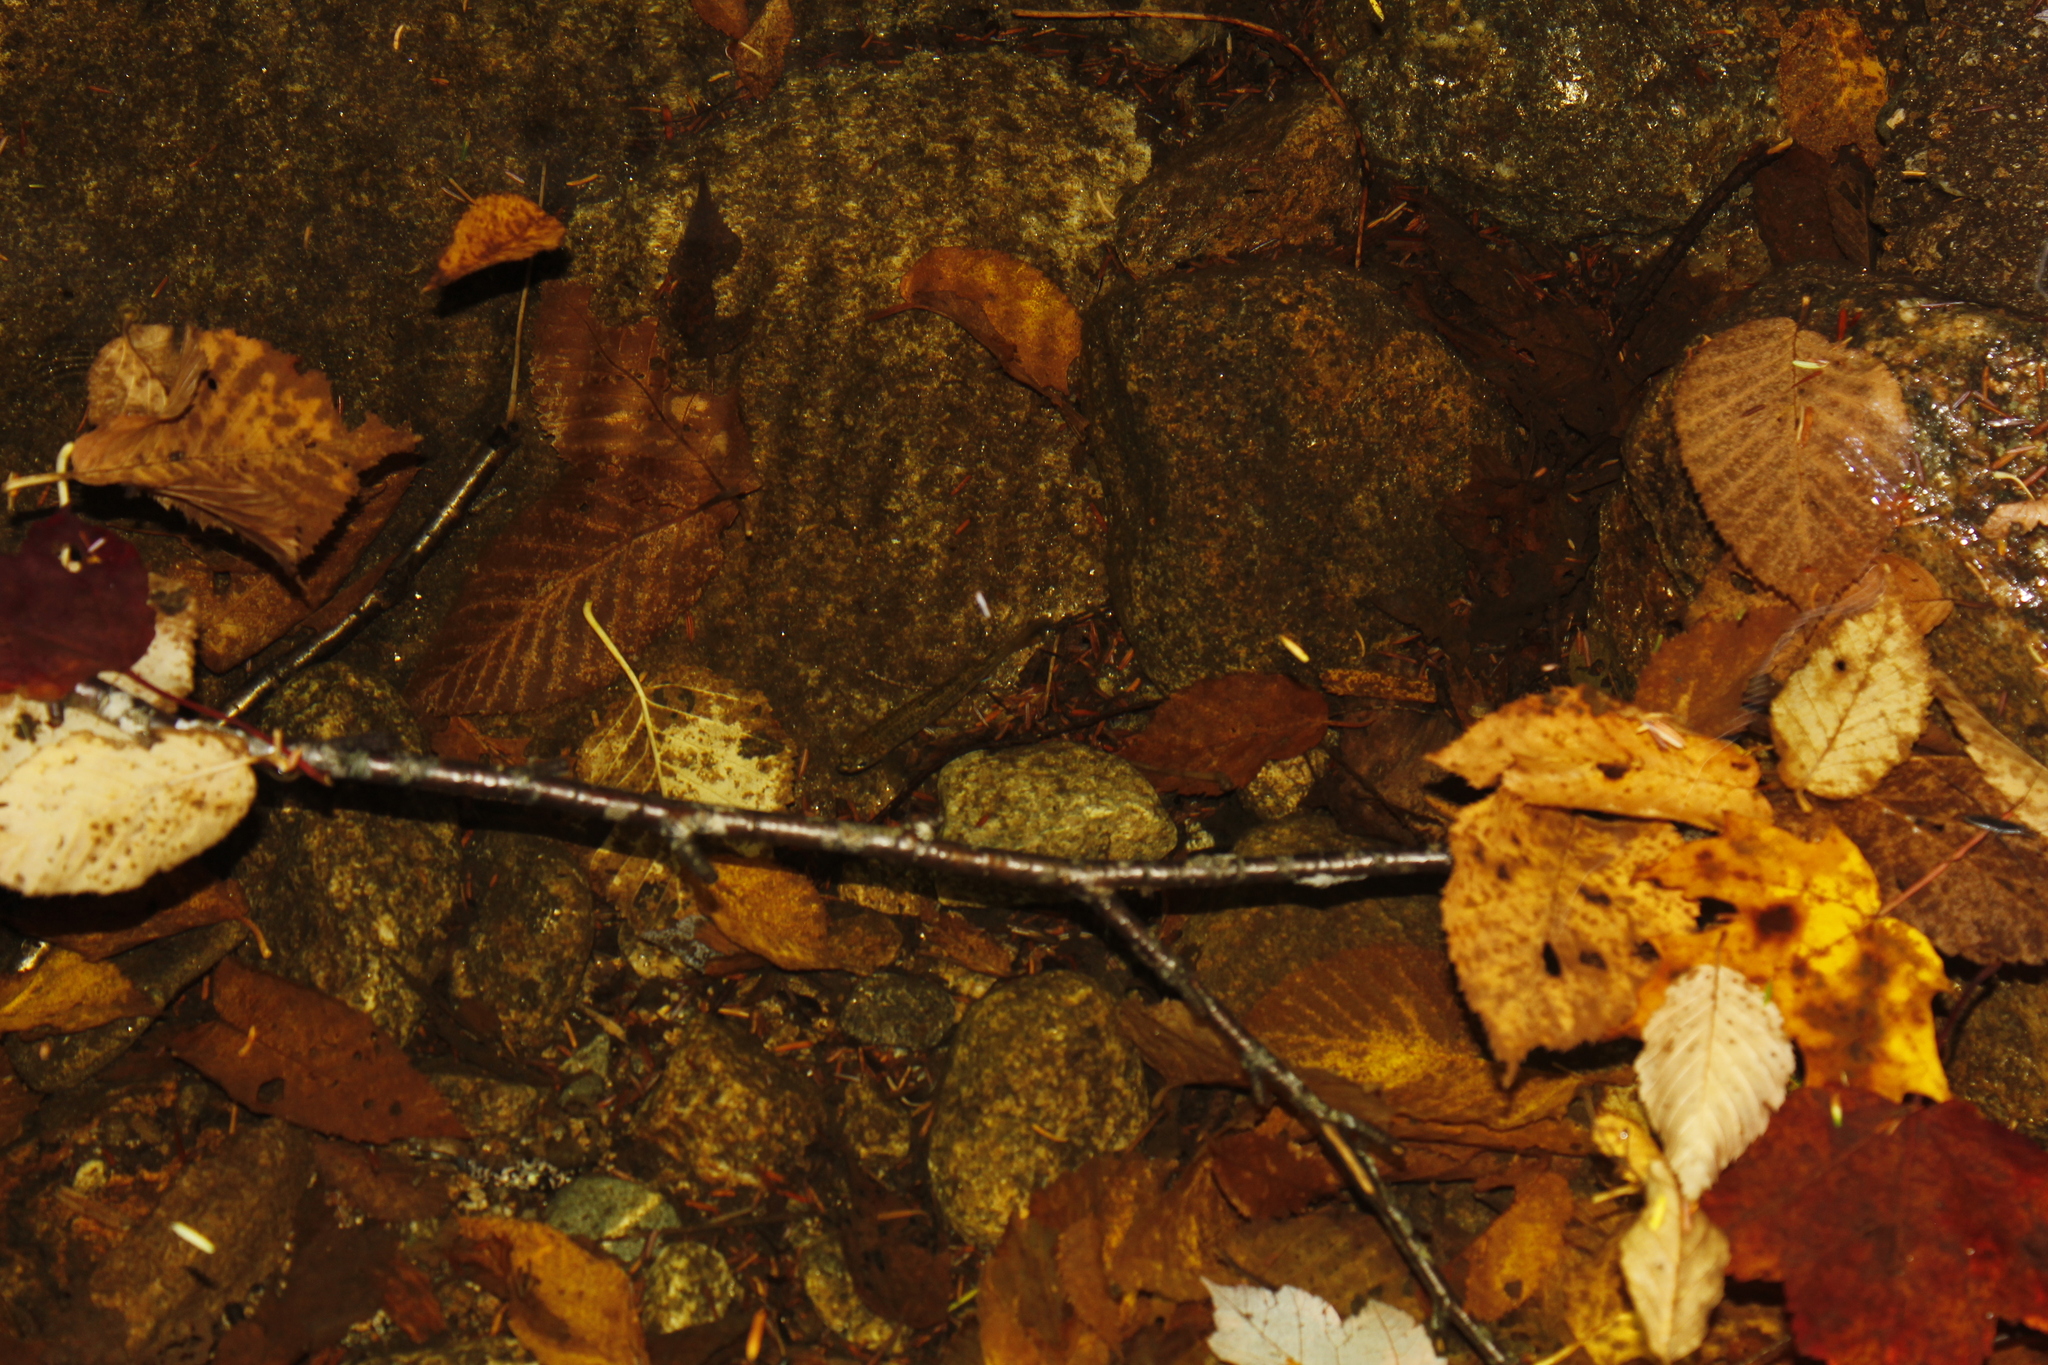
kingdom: Animalia
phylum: Chordata
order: Salmoniformes
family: Salmonidae
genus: Salvelinus
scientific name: Salvelinus fontinalis
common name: Brook trout
